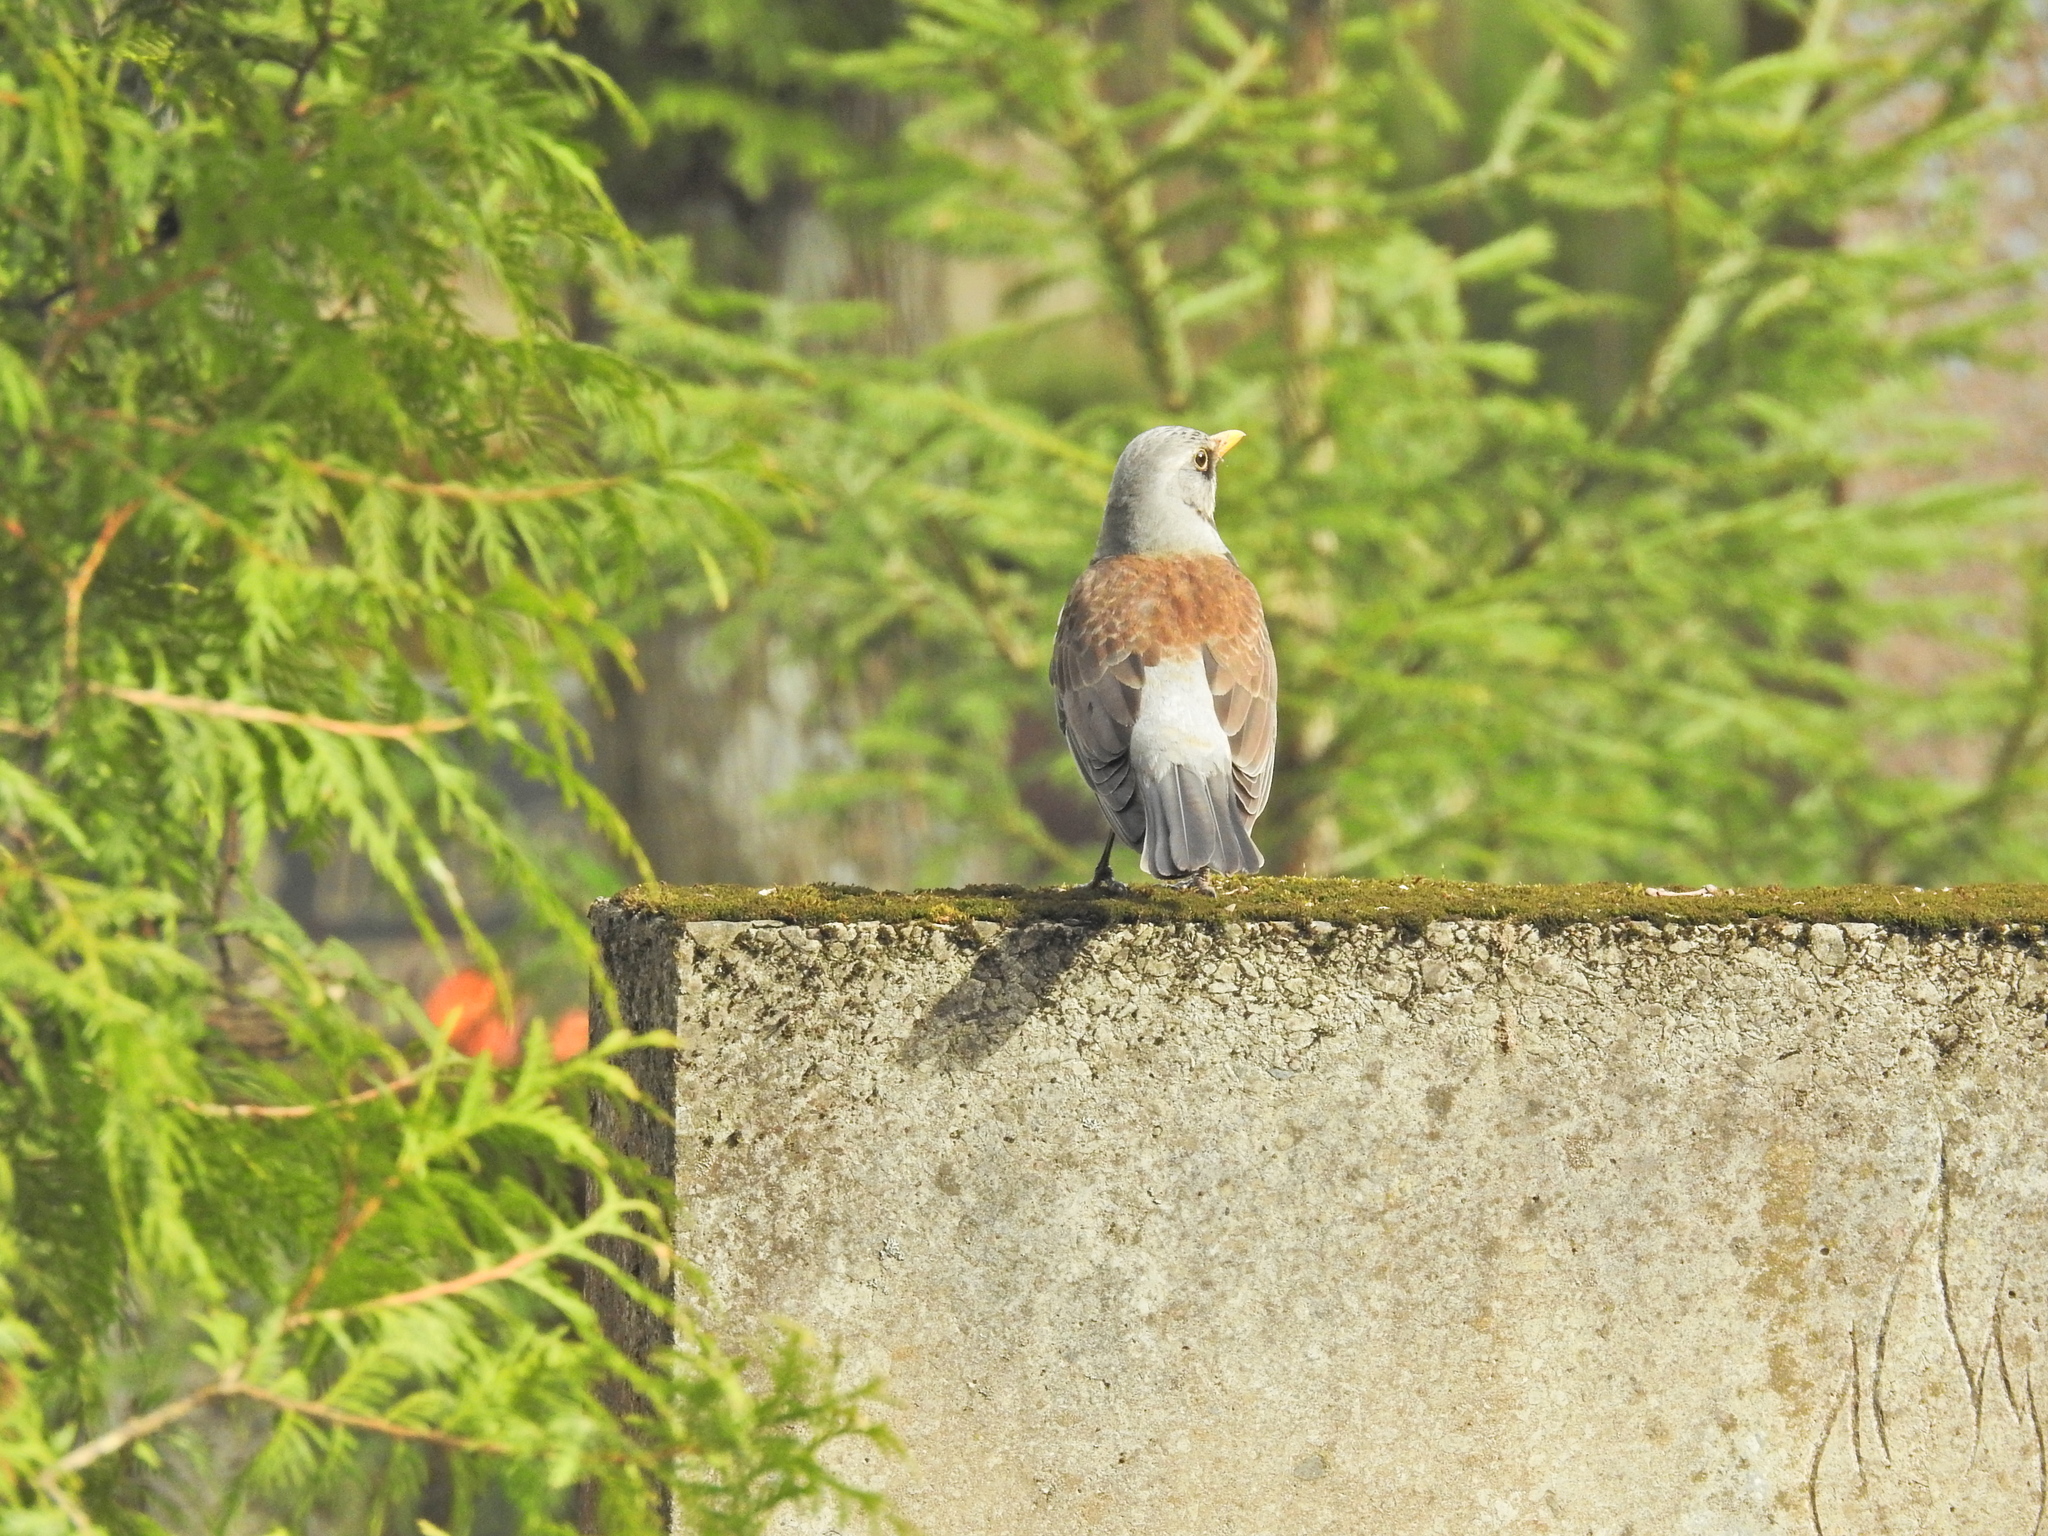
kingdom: Animalia
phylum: Chordata
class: Aves
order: Passeriformes
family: Turdidae
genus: Turdus
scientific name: Turdus pilaris
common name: Fieldfare
